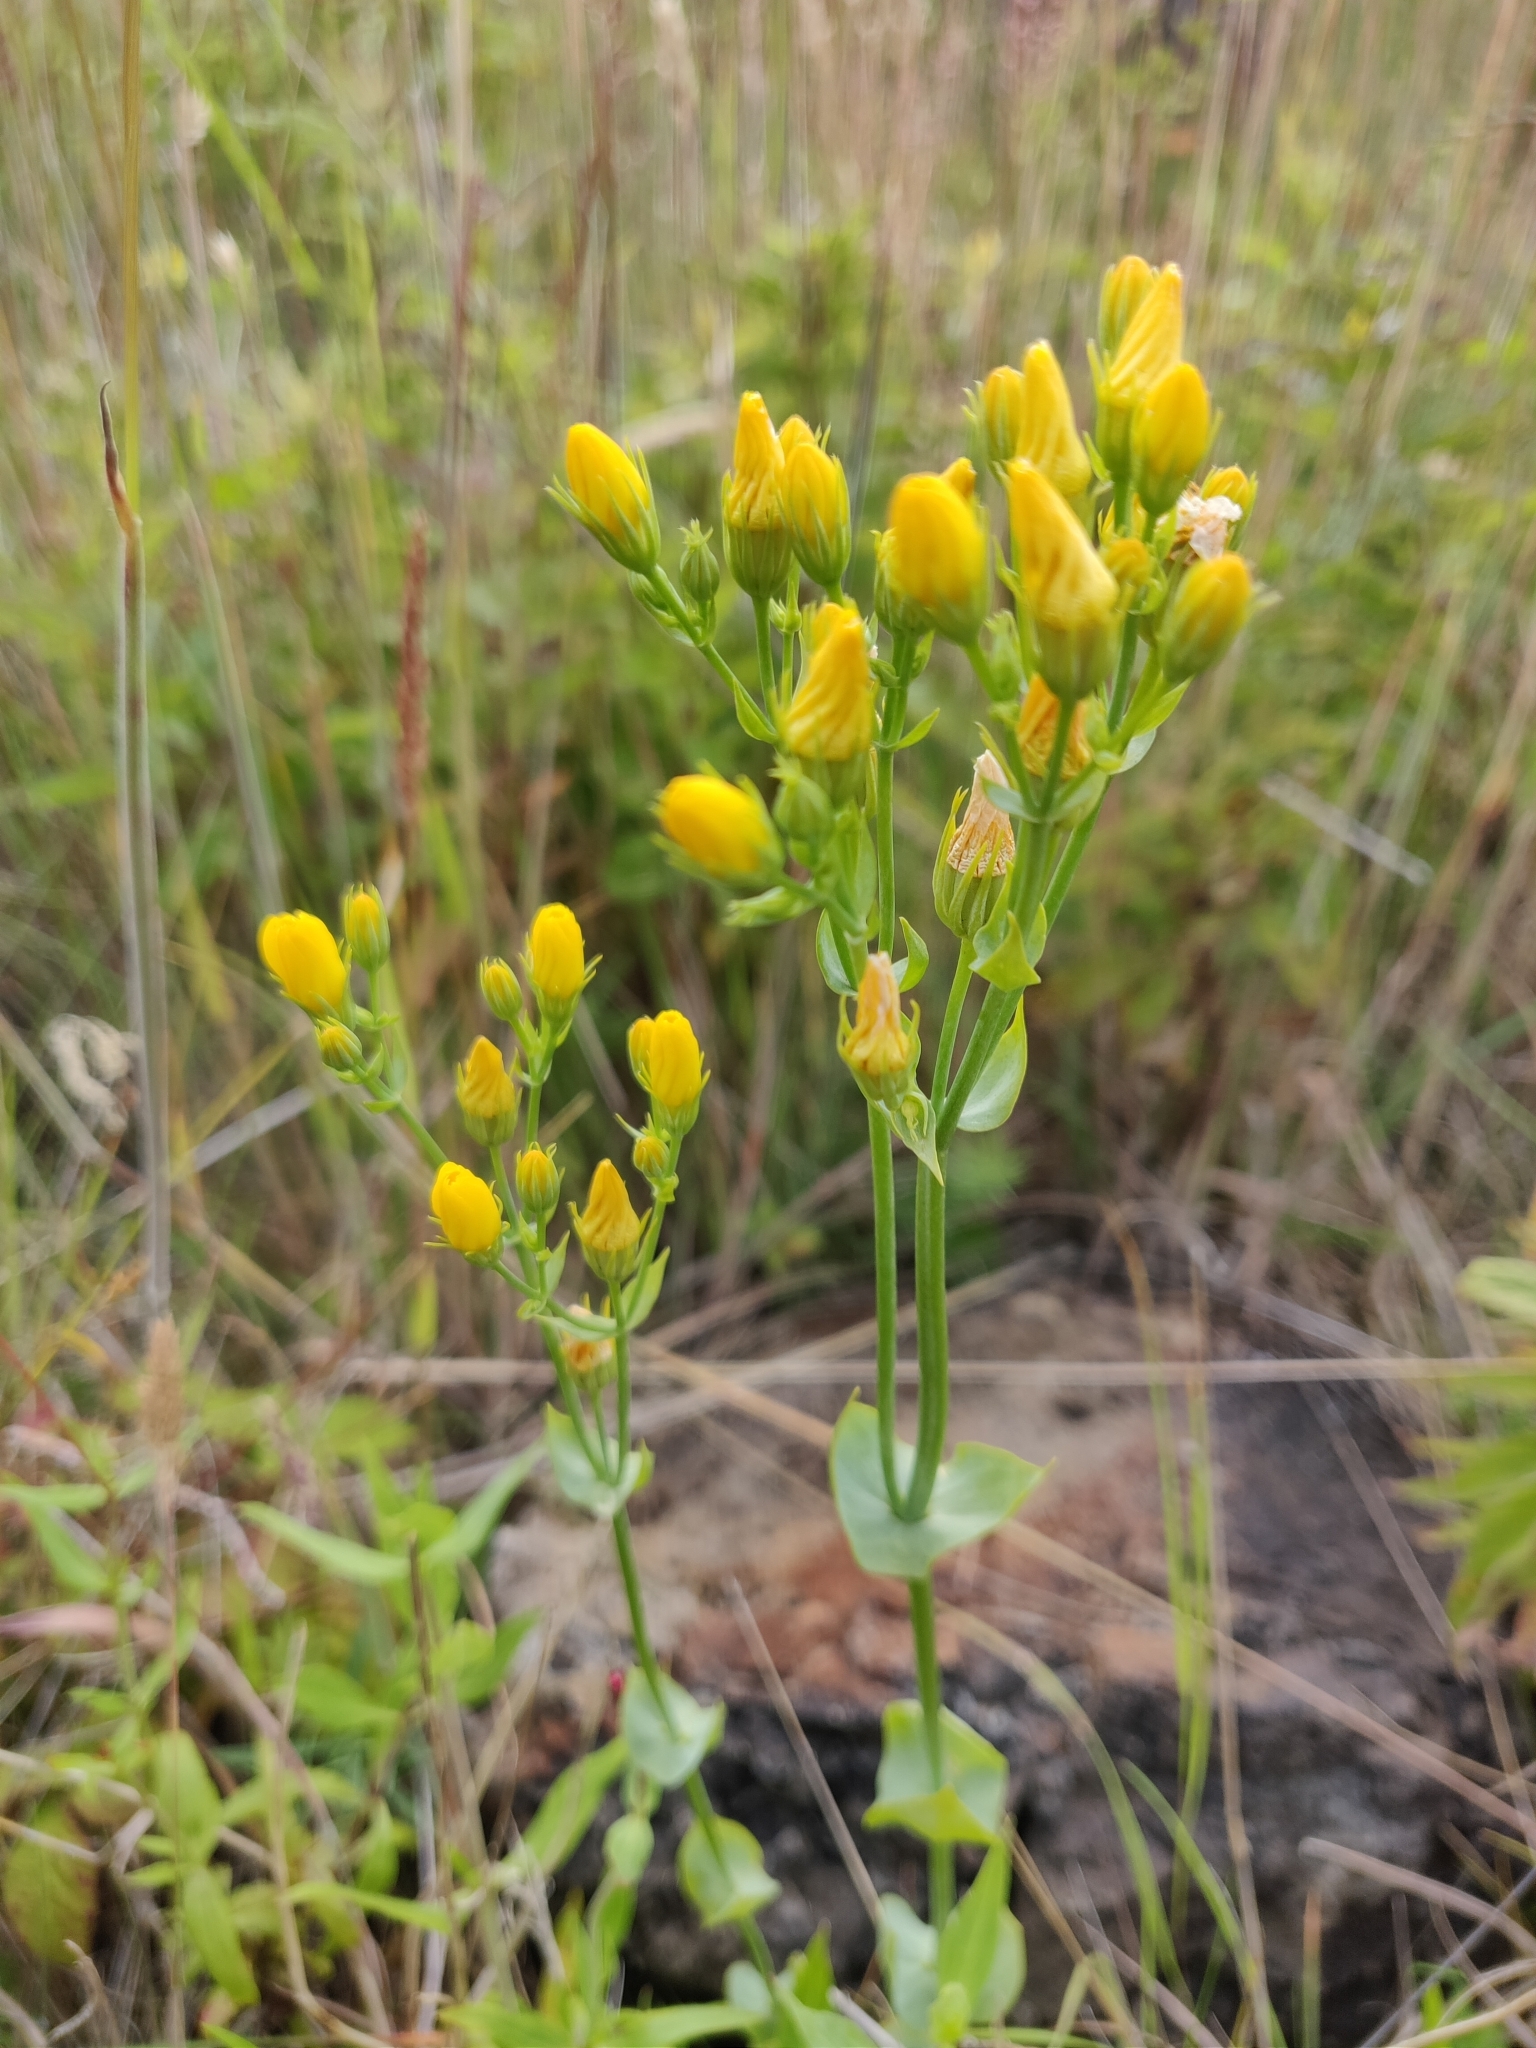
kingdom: Plantae
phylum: Tracheophyta
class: Magnoliopsida
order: Gentianales
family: Gentianaceae
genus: Blackstonia
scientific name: Blackstonia perfoliata
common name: Yellow-wort
